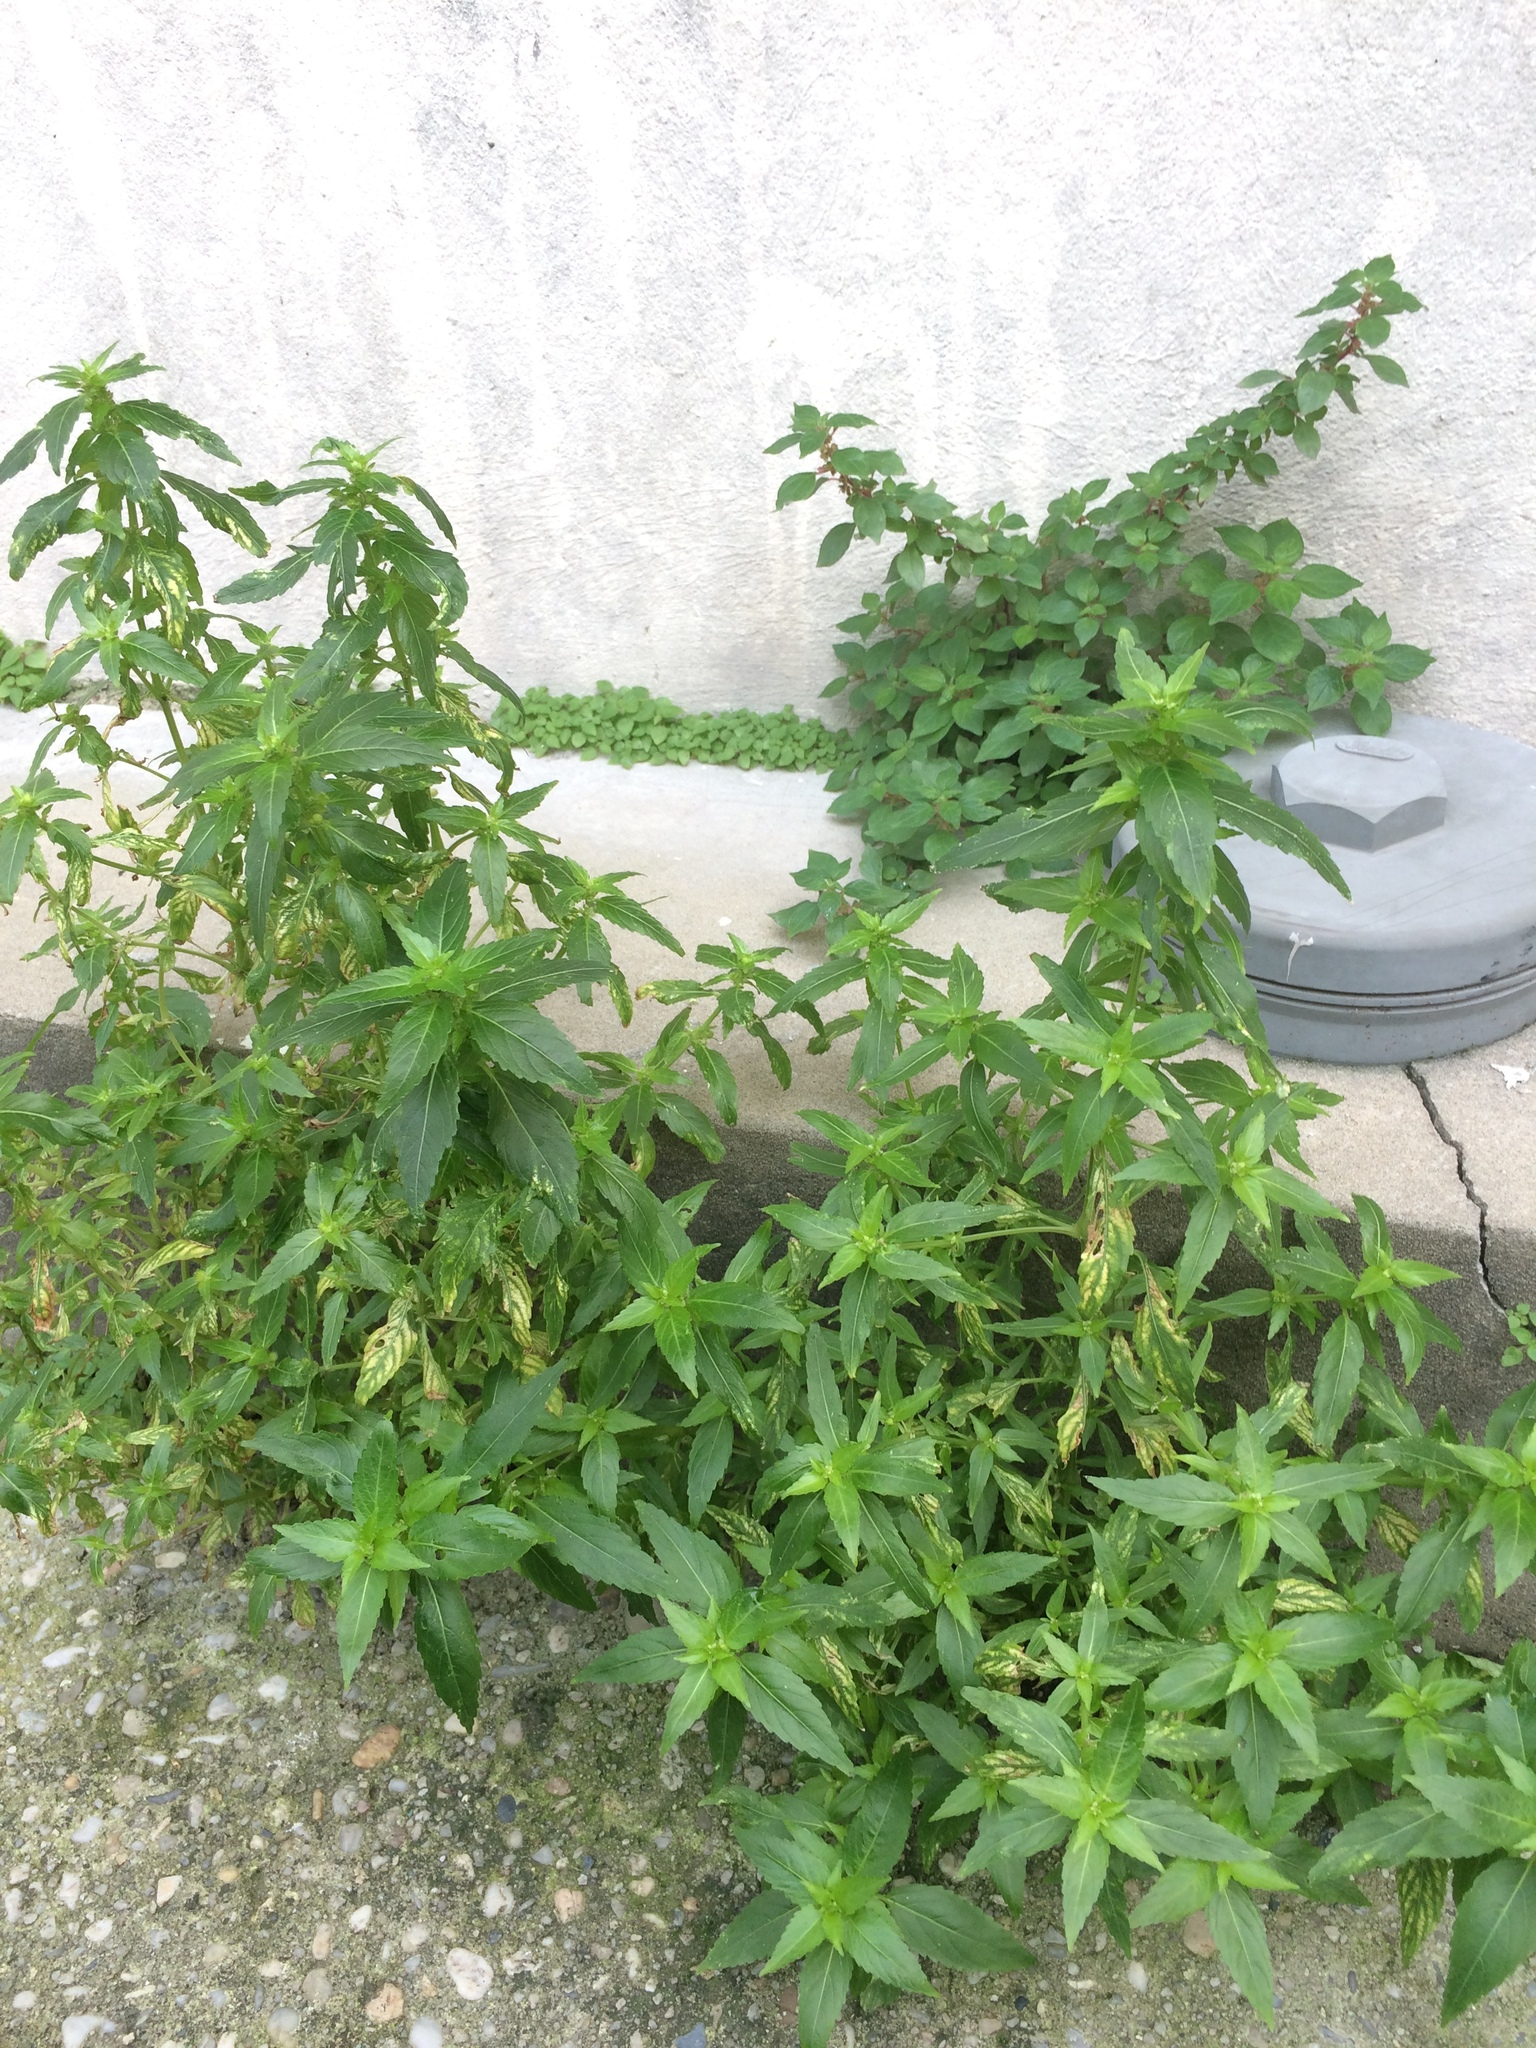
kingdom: Plantae
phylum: Tracheophyta
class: Magnoliopsida
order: Malpighiales
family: Euphorbiaceae
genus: Mercurialis
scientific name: Mercurialis annua
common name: Annual mercury
